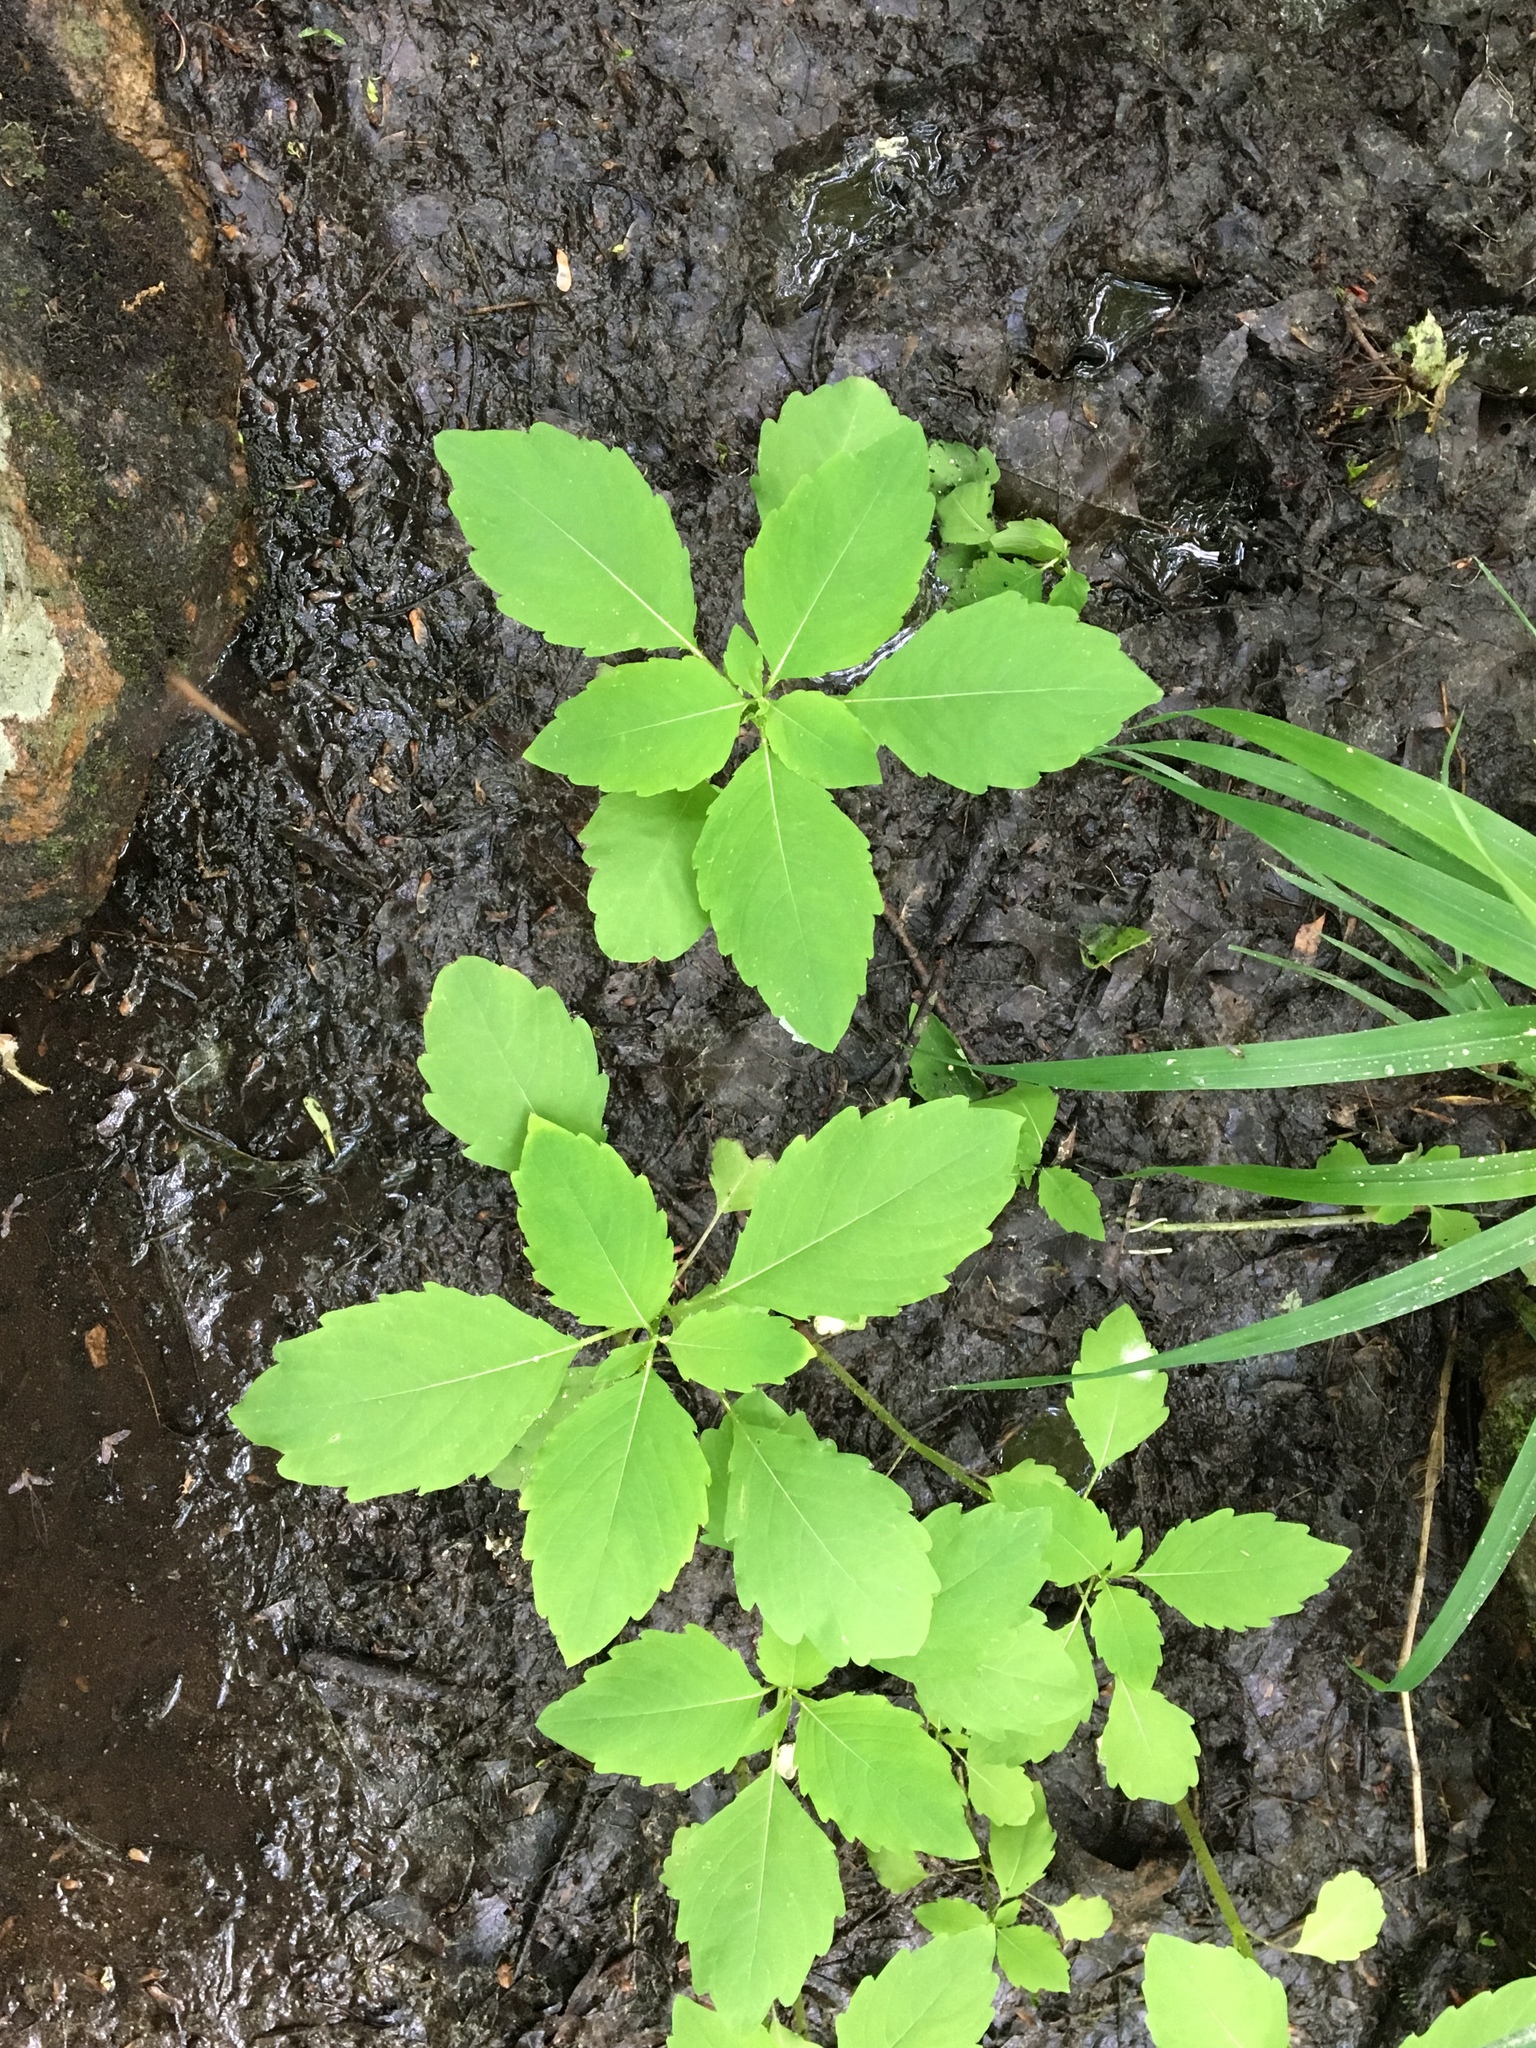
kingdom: Plantae
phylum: Tracheophyta
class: Magnoliopsida
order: Ericales
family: Balsaminaceae
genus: Impatiens
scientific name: Impatiens capensis
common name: Orange balsam
